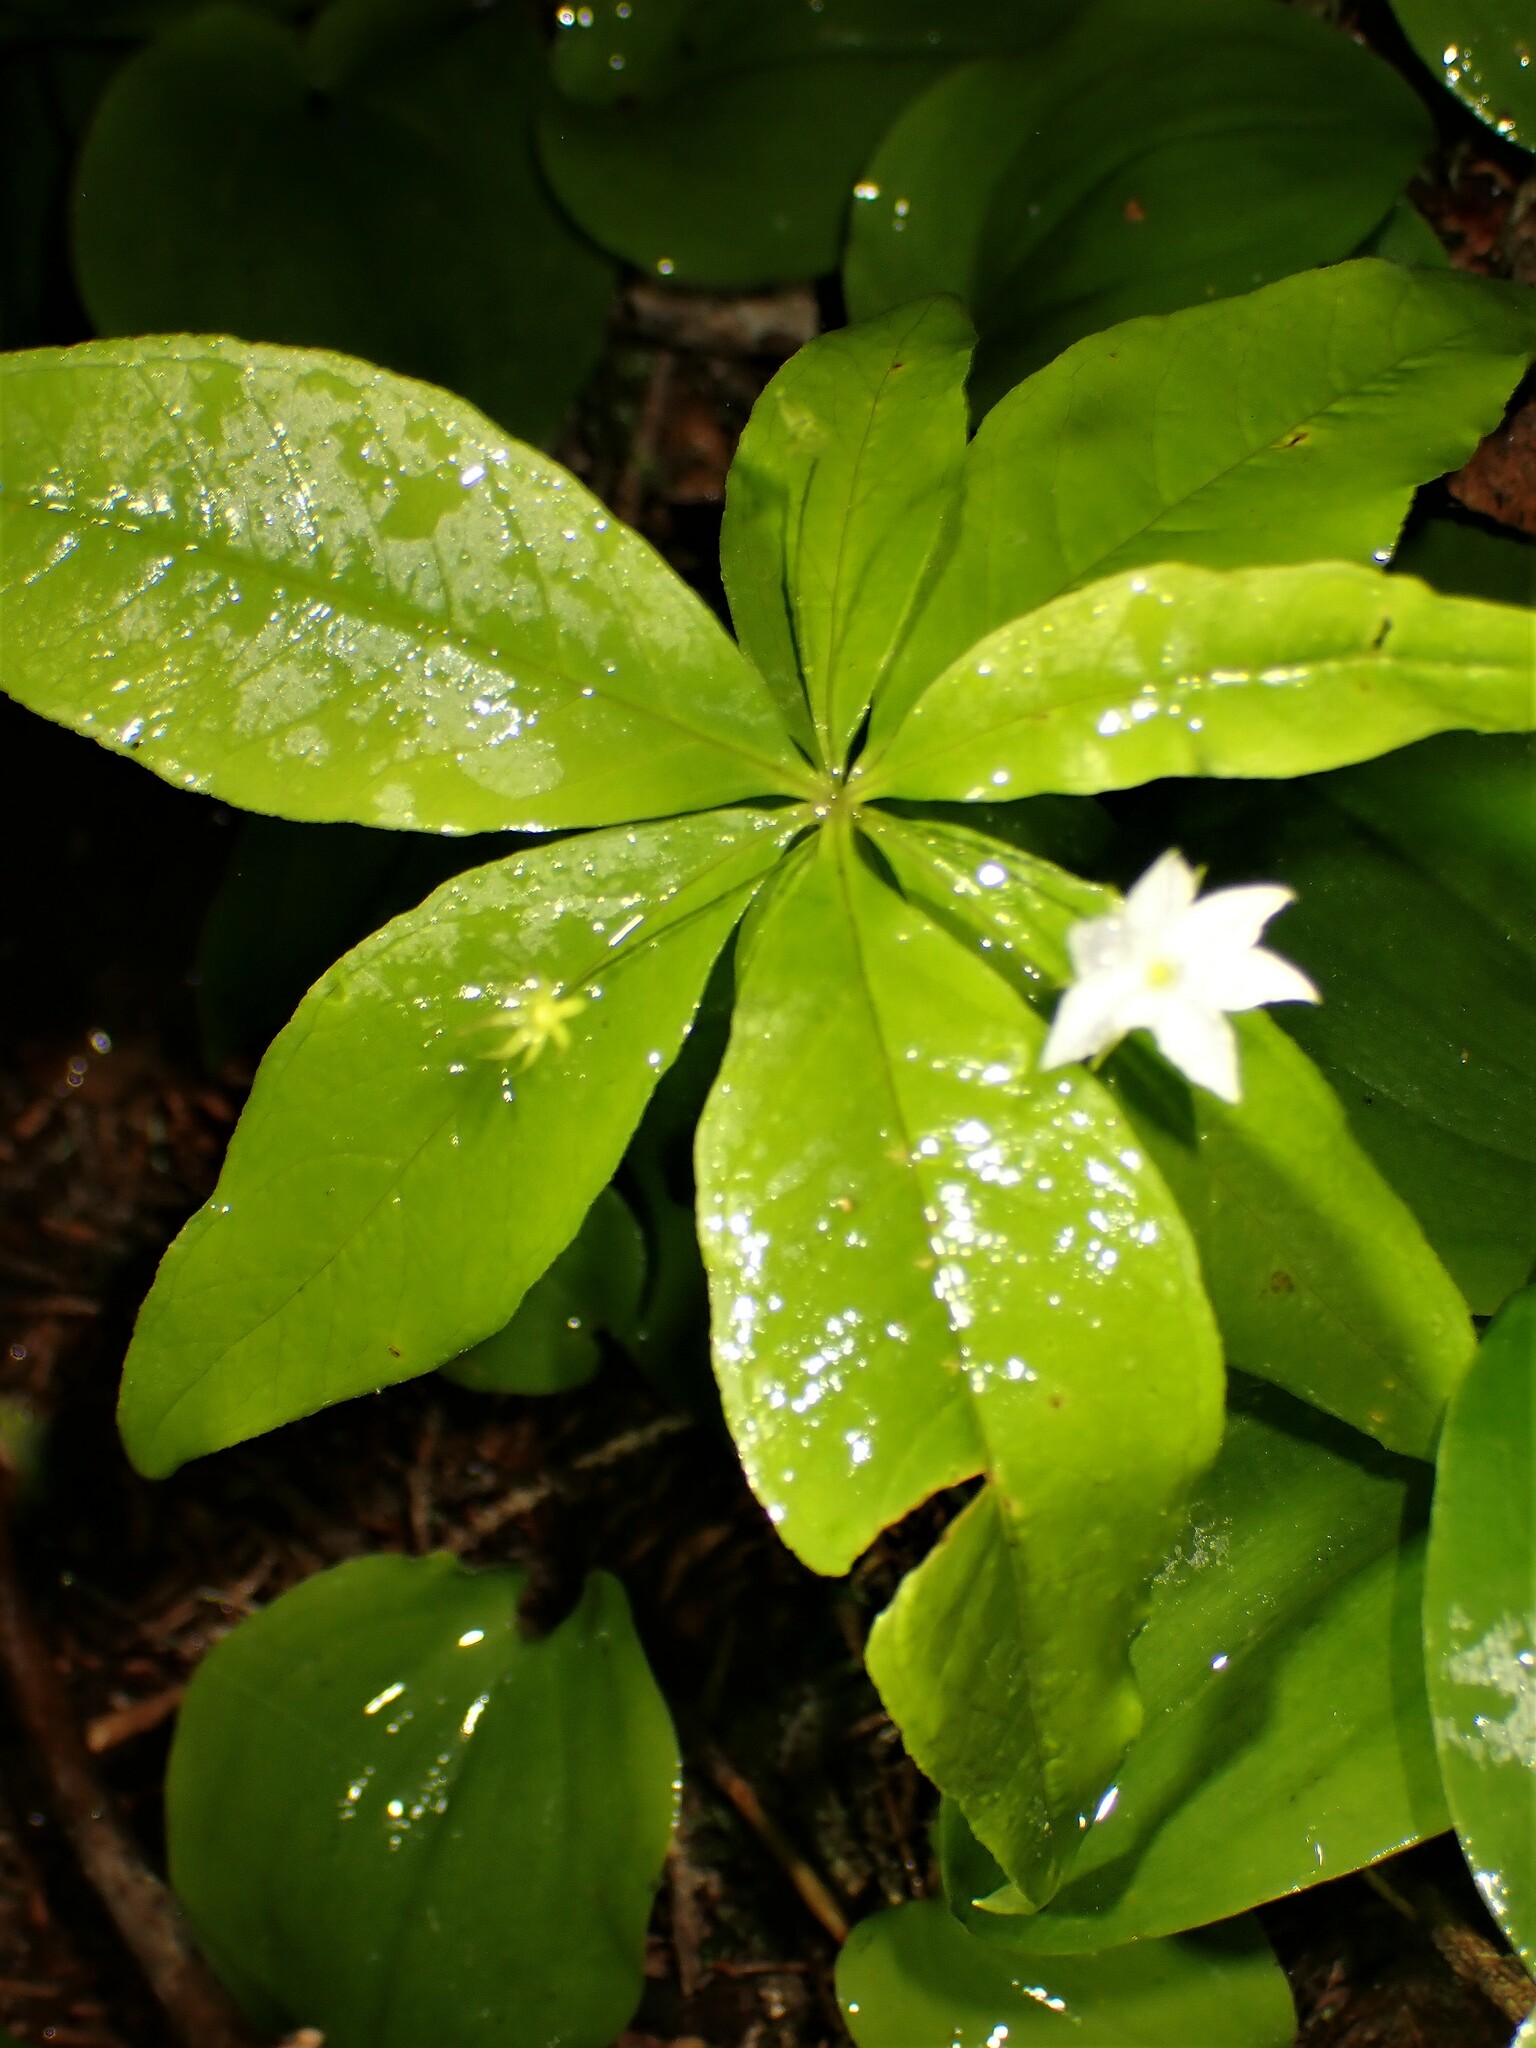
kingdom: Plantae
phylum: Tracheophyta
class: Magnoliopsida
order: Ericales
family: Primulaceae
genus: Lysimachia
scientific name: Lysimachia borealis
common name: American starflower
